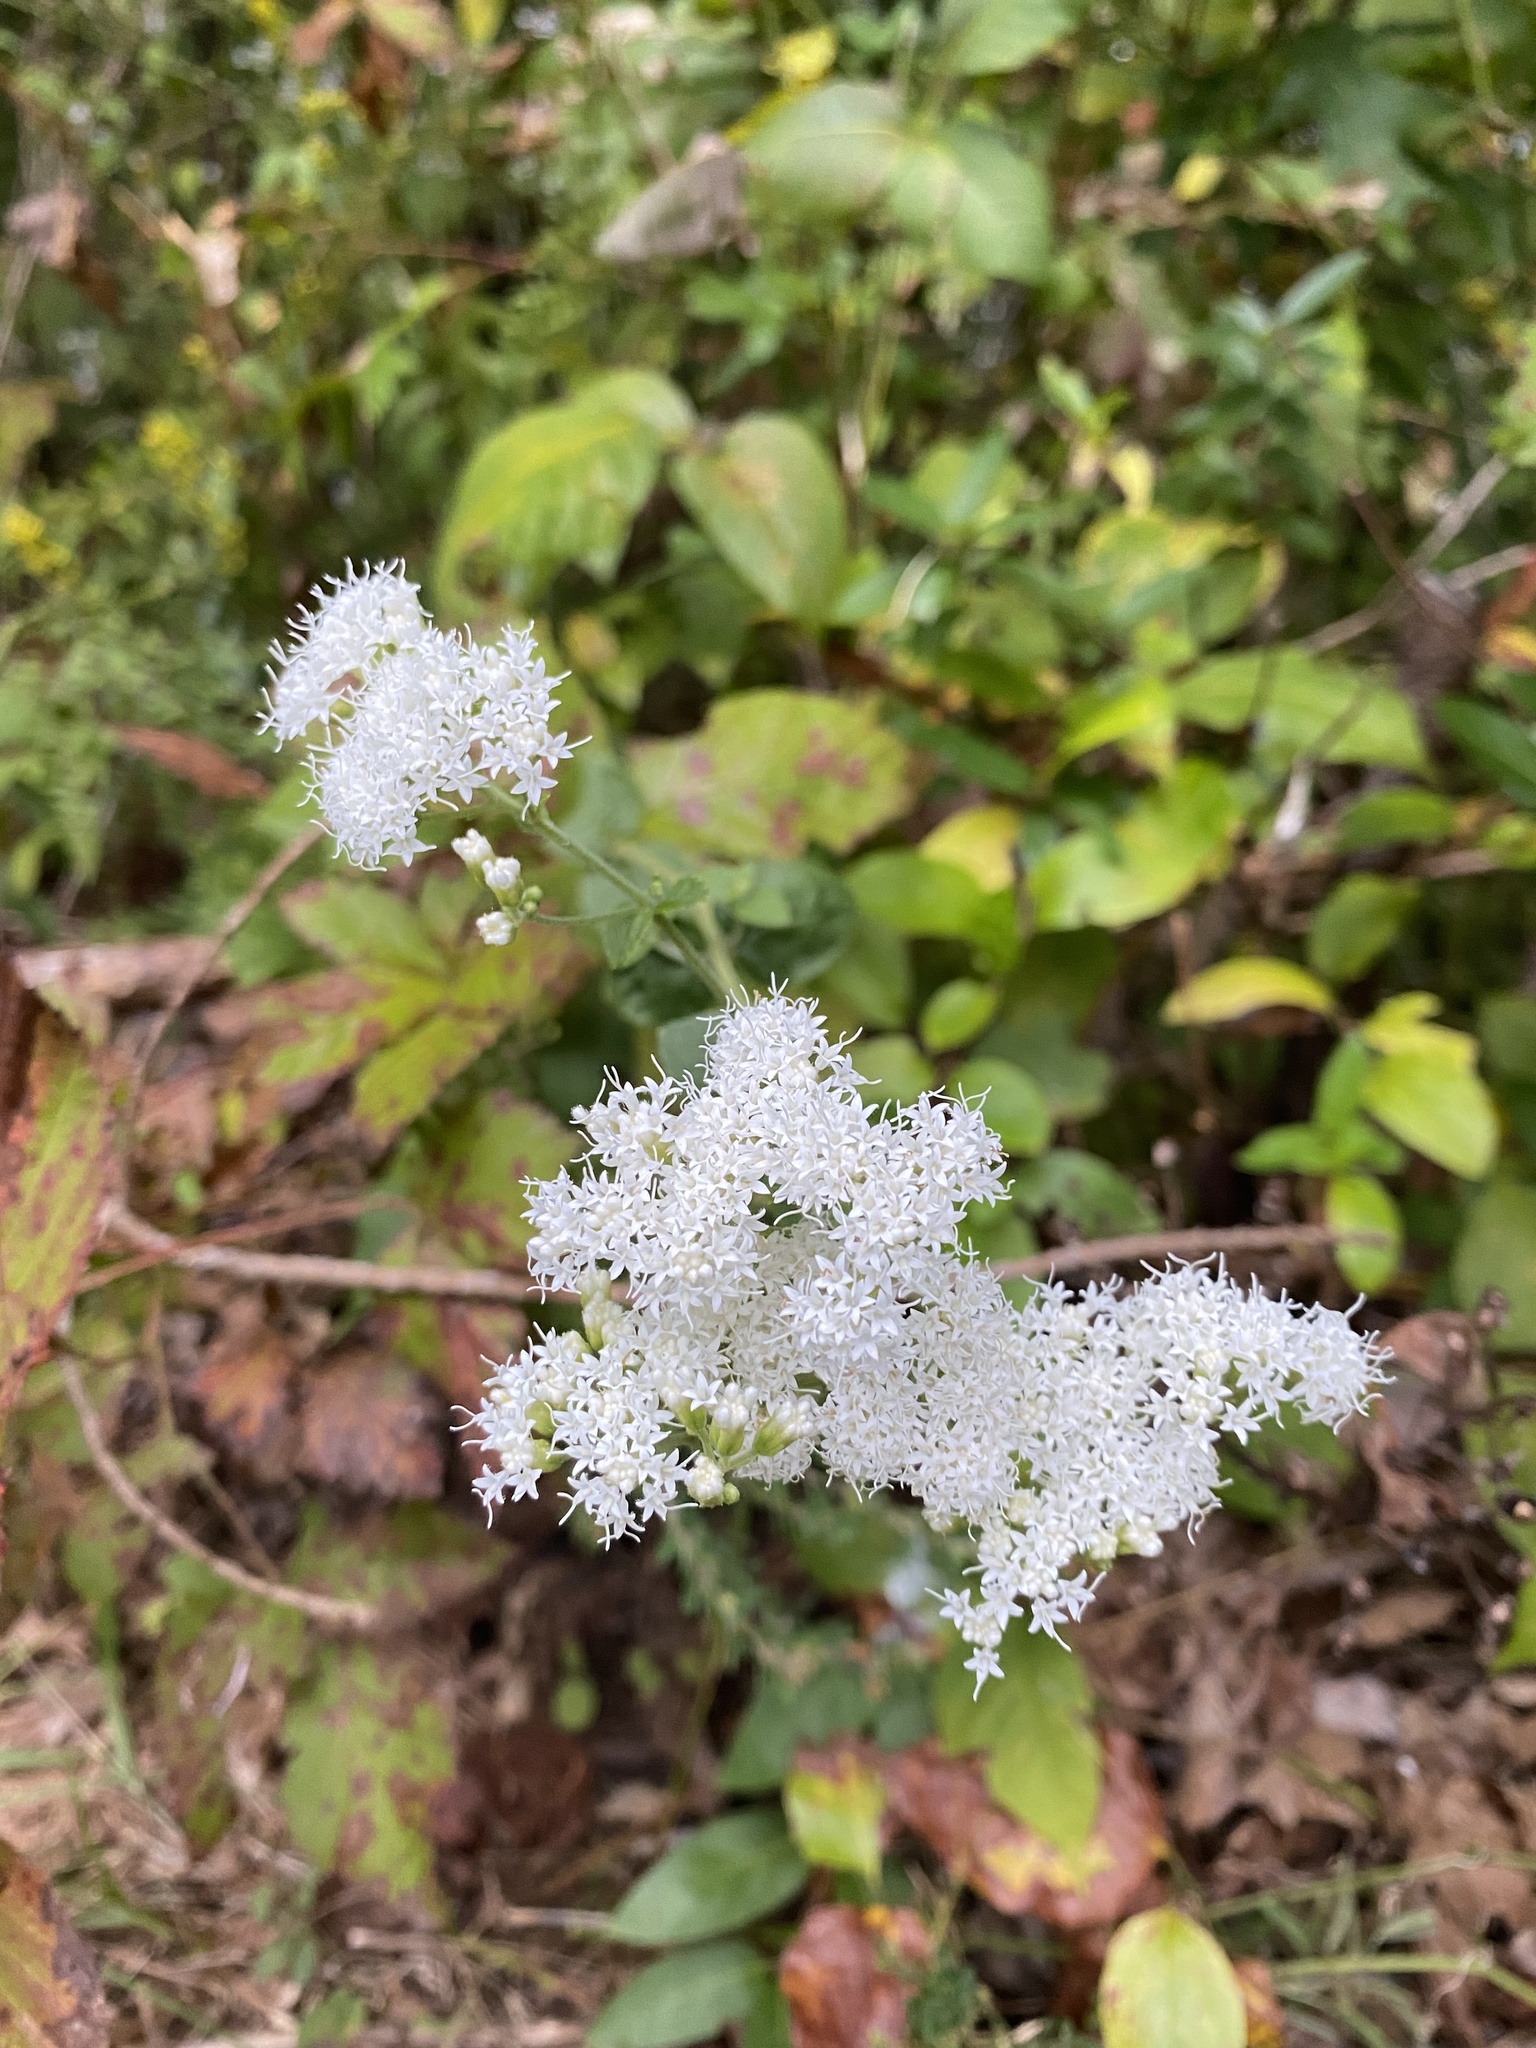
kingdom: Plantae
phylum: Tracheophyta
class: Magnoliopsida
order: Asterales
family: Asteraceae
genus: Ageratina
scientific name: Ageratina aromatica
